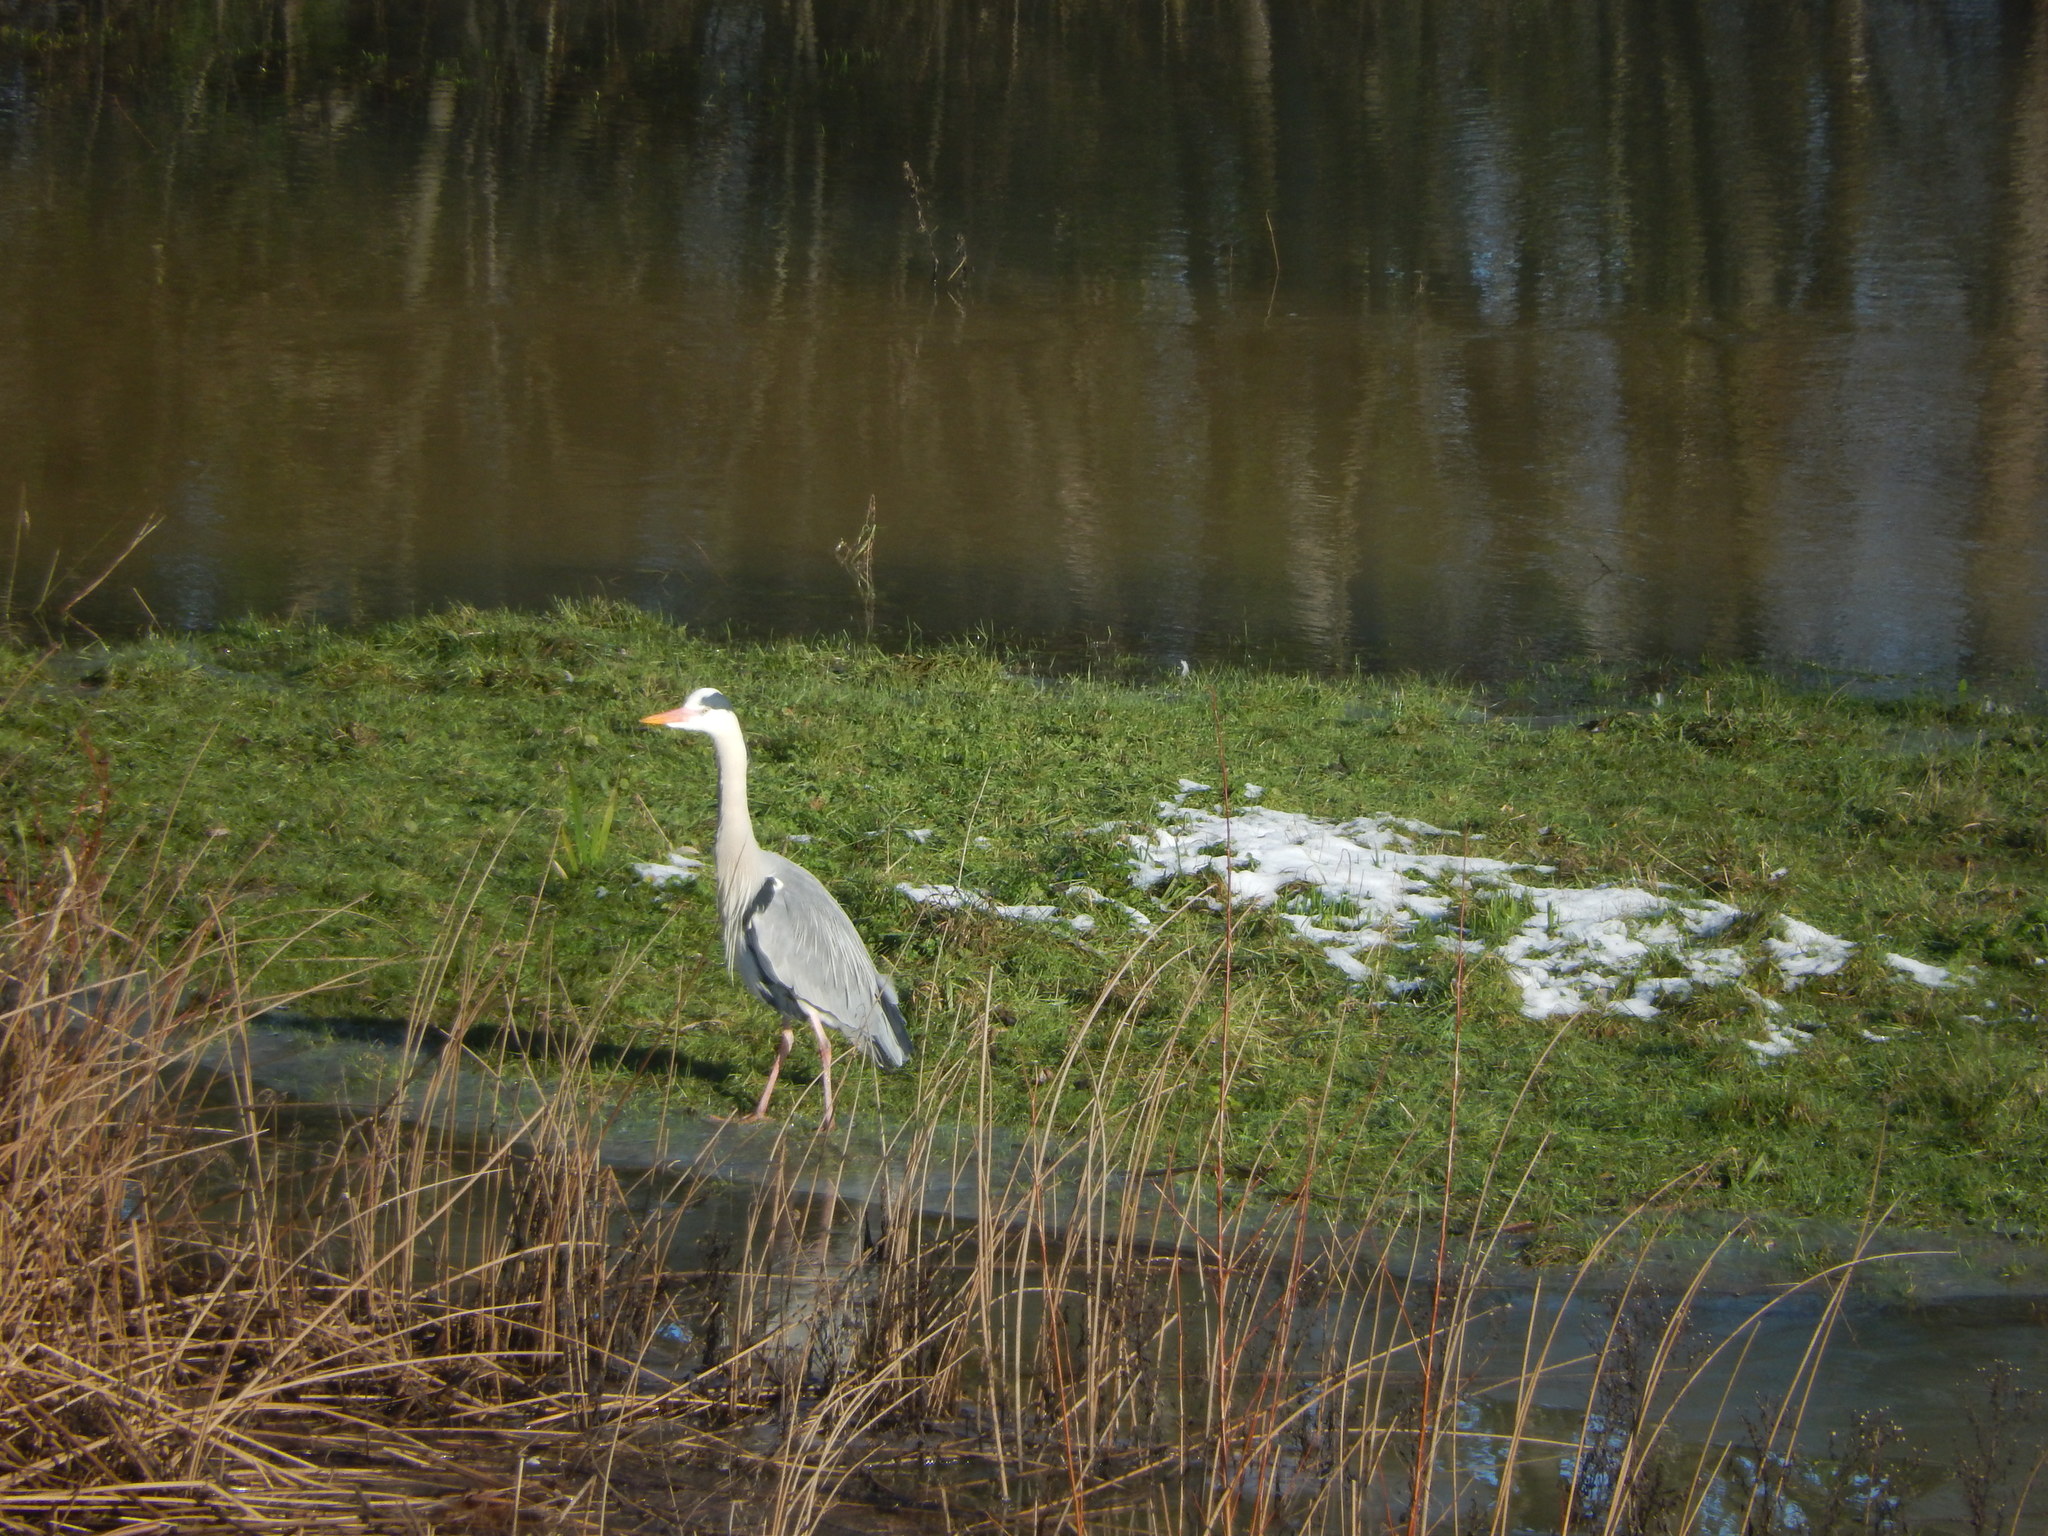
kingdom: Animalia
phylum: Chordata
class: Aves
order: Pelecaniformes
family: Ardeidae
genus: Ardea
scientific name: Ardea cinerea
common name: Grey heron
